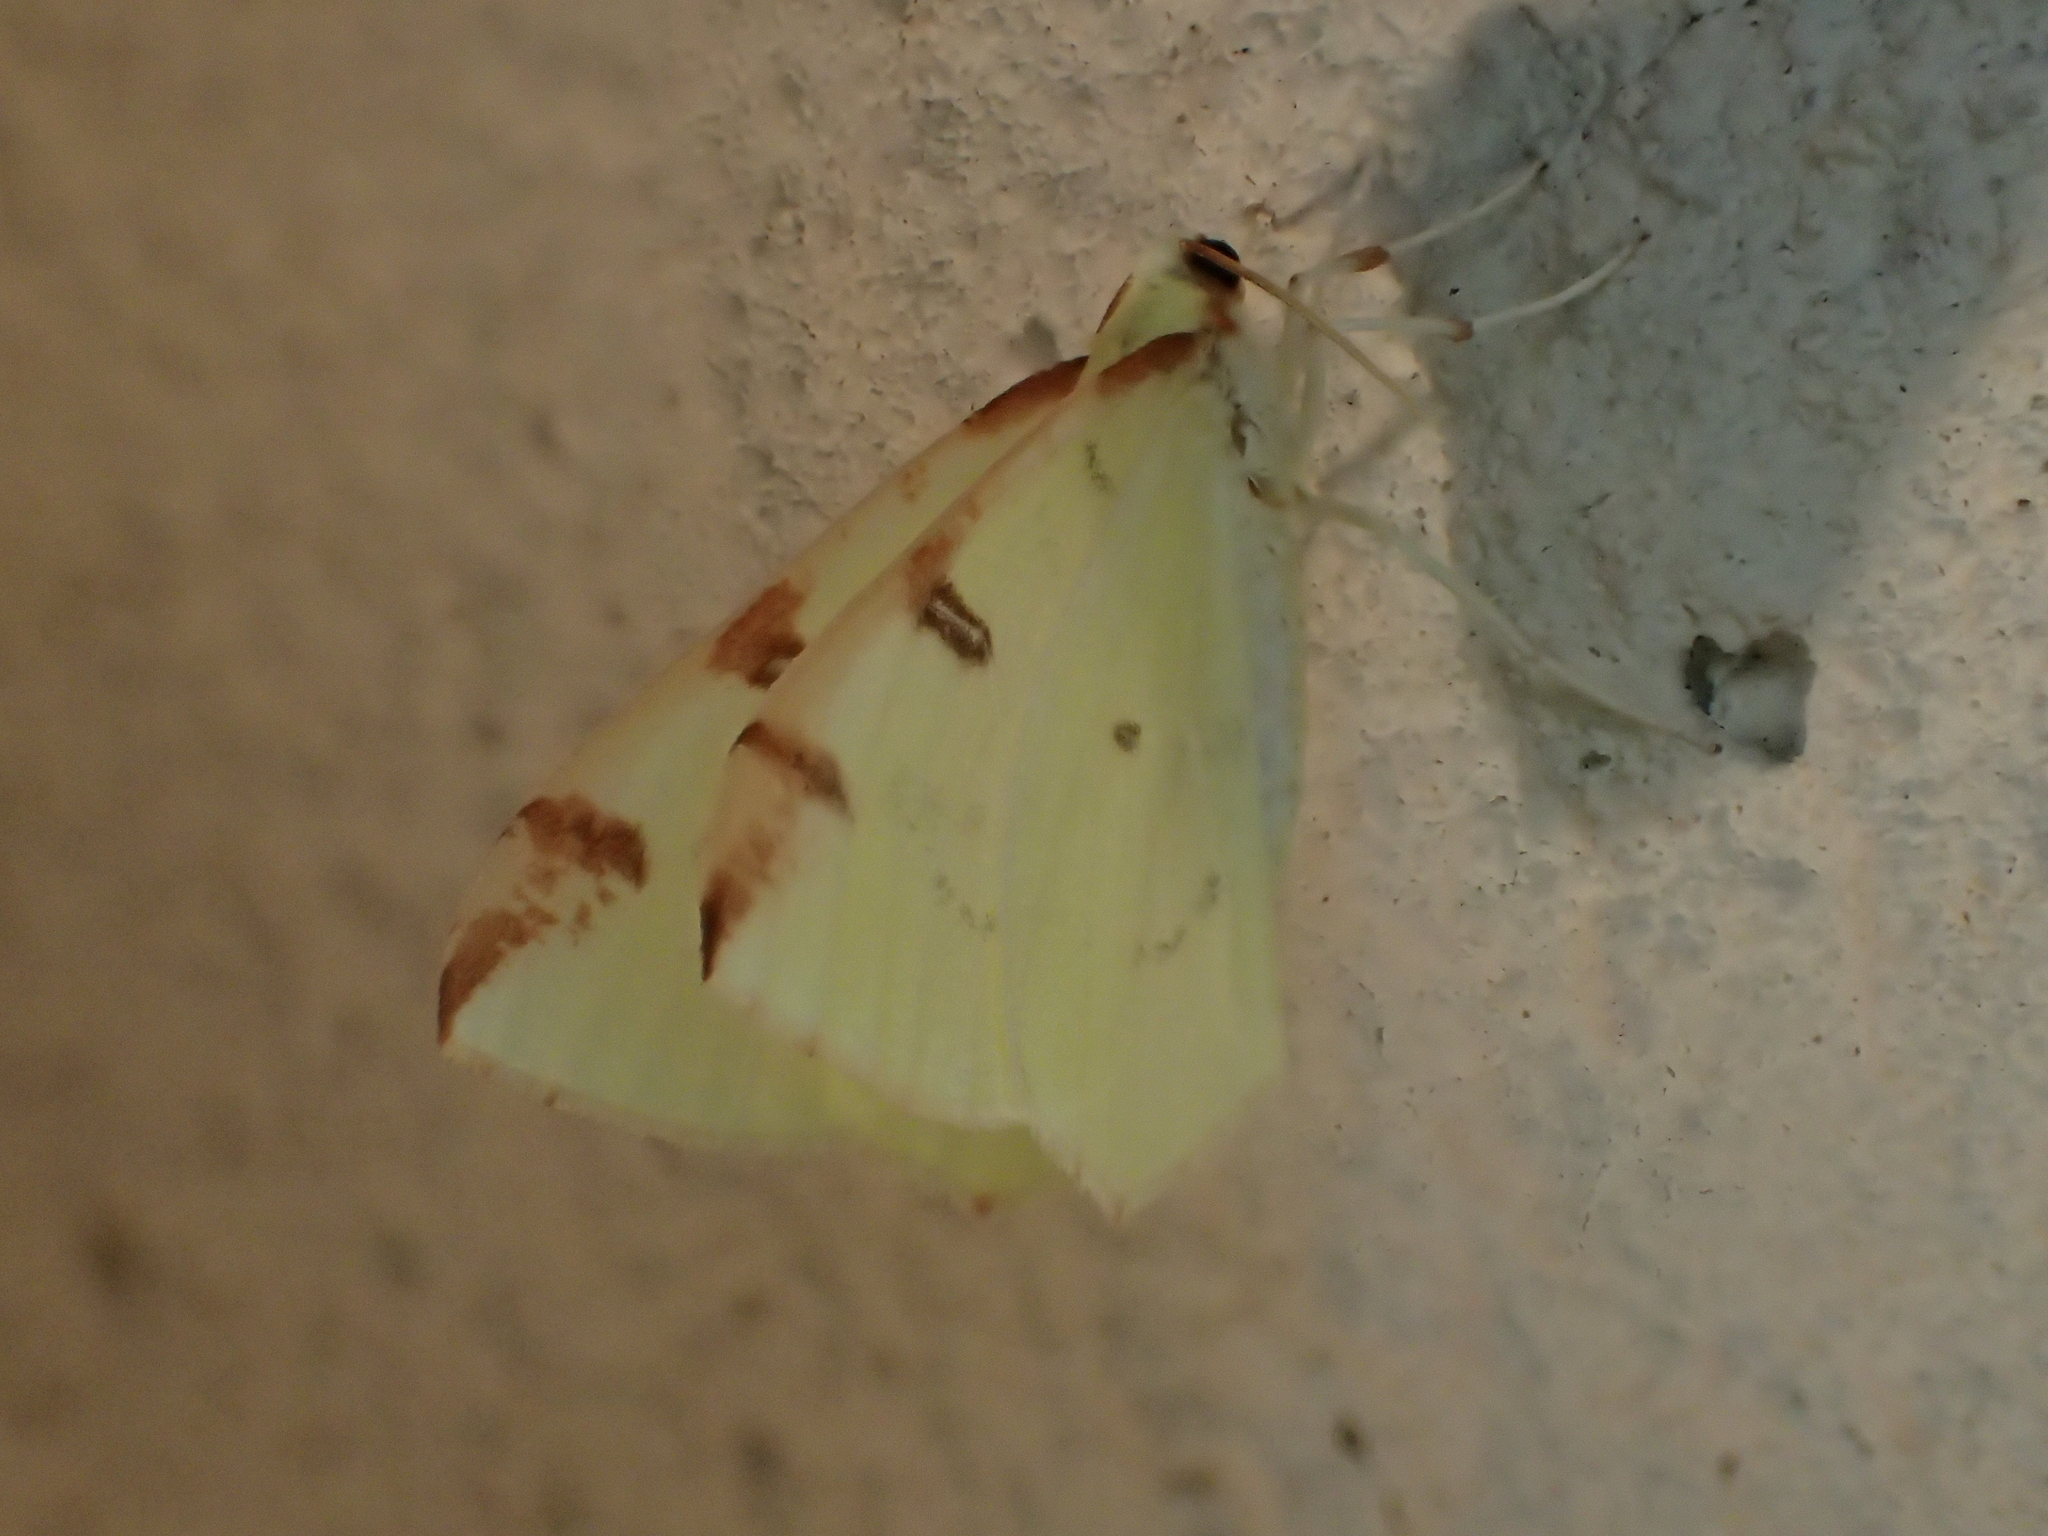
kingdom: Animalia
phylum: Arthropoda
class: Insecta
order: Lepidoptera
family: Geometridae
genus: Opisthograptis
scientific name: Opisthograptis luteolata
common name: Brimstone moth
